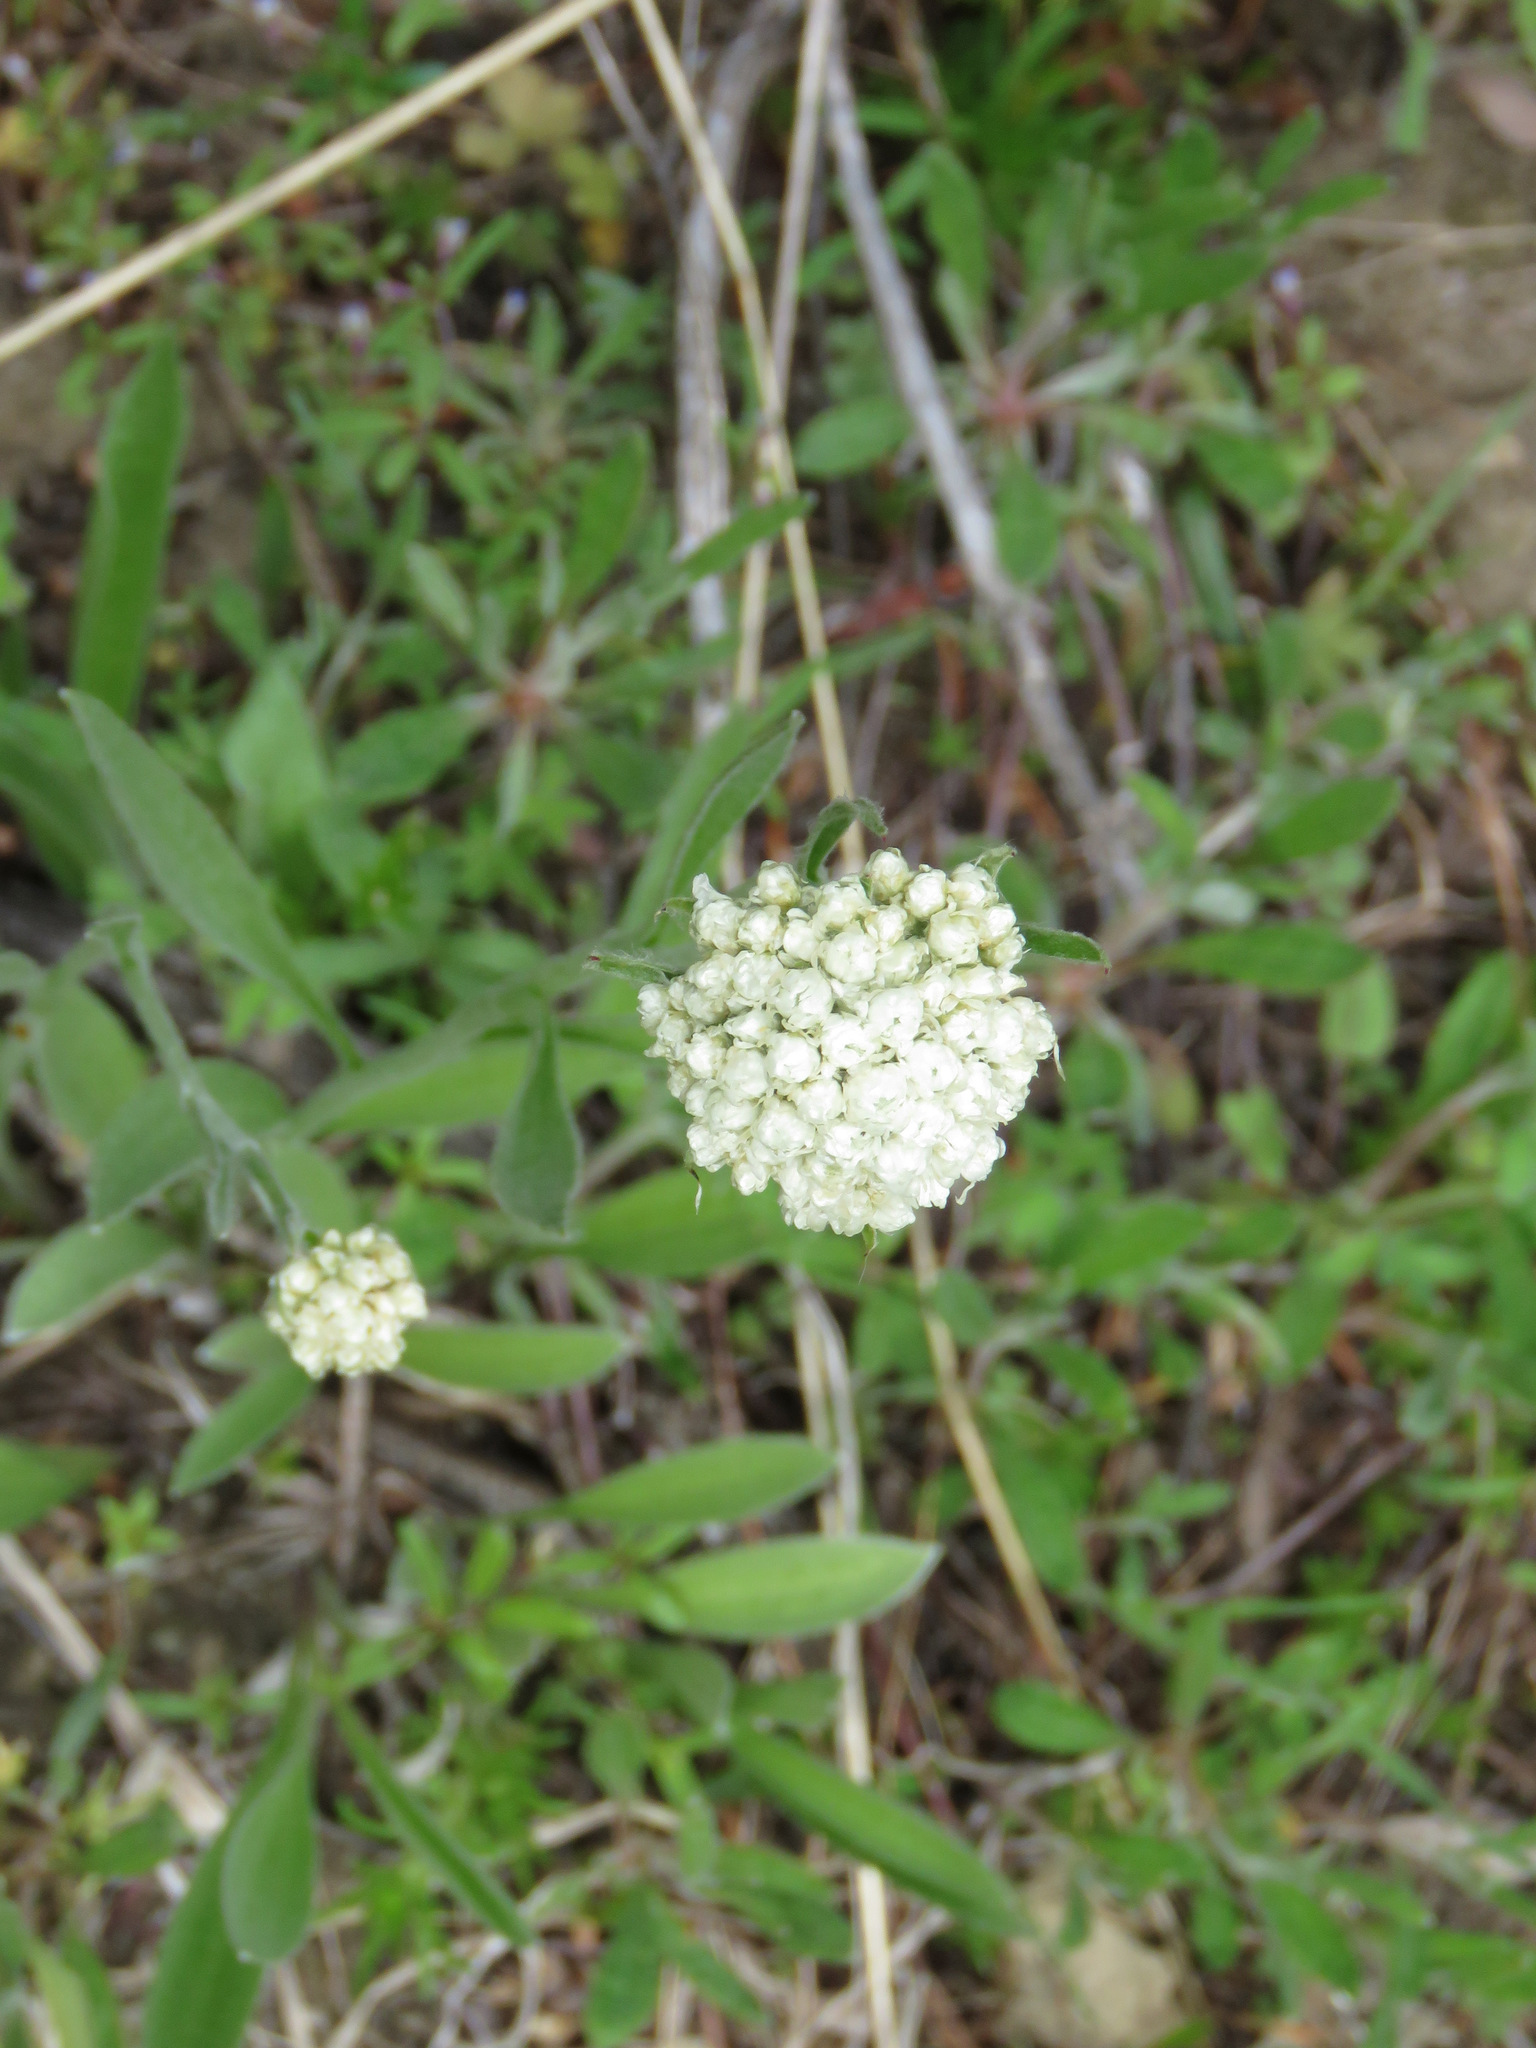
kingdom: Plantae
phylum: Tracheophyta
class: Magnoliopsida
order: Asterales
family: Asteraceae
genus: Anaphalis
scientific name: Anaphalis margaritacea
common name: Pearly everlasting
